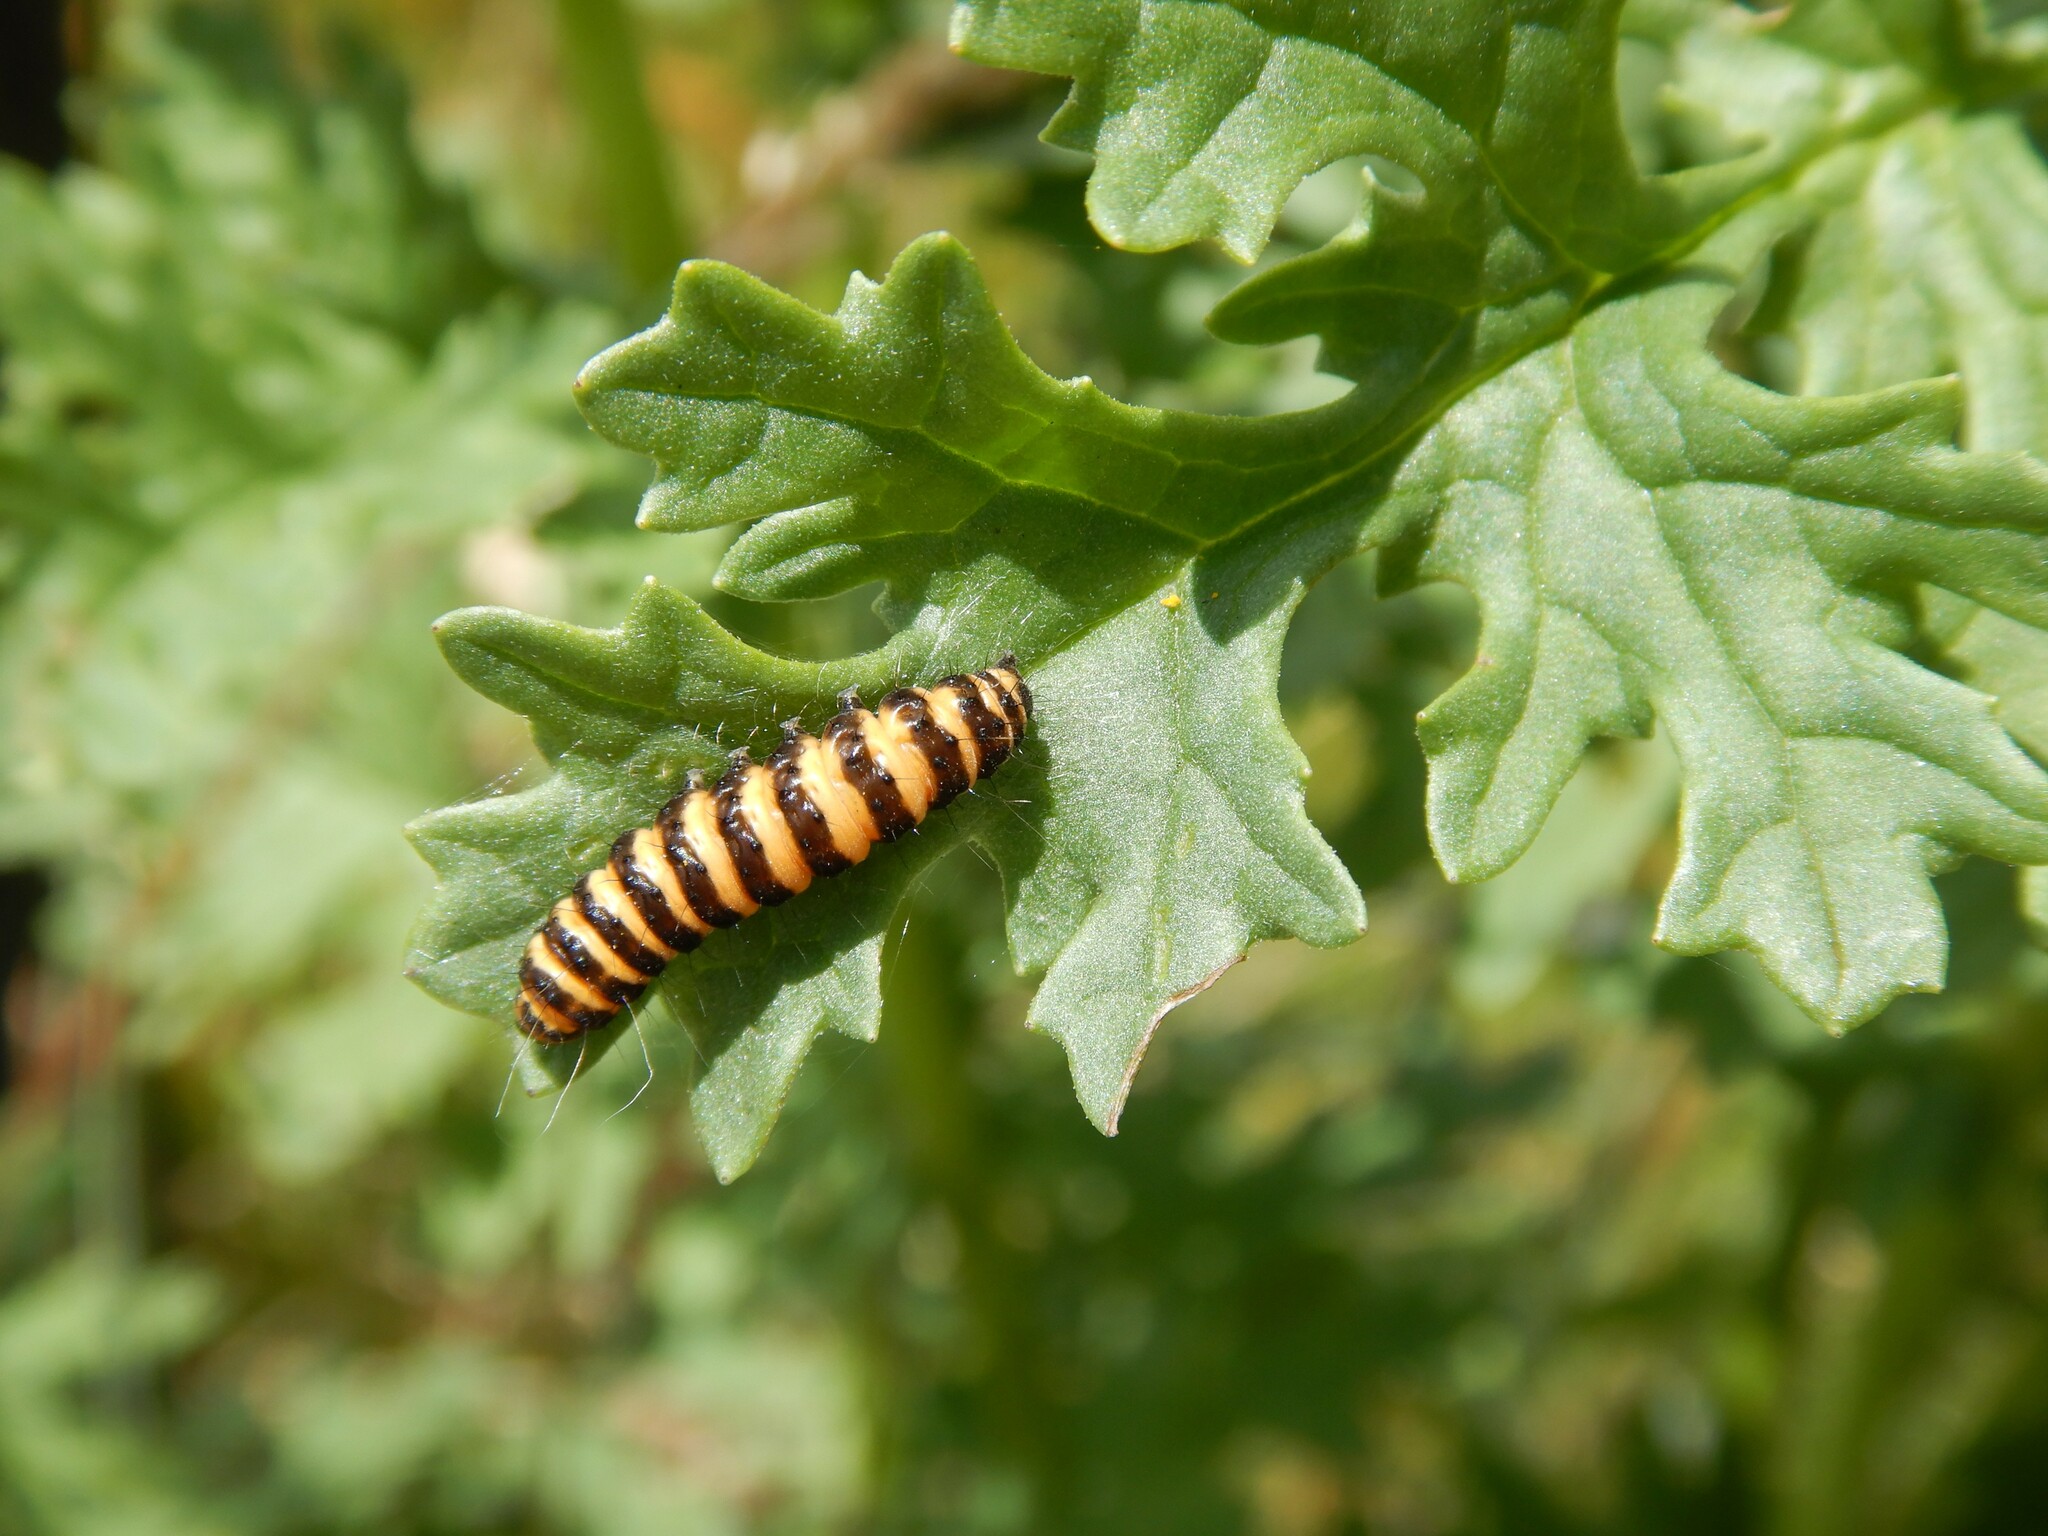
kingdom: Animalia
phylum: Arthropoda
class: Insecta
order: Lepidoptera
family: Erebidae
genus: Tyria
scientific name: Tyria jacobaeae
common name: Cinnabar
